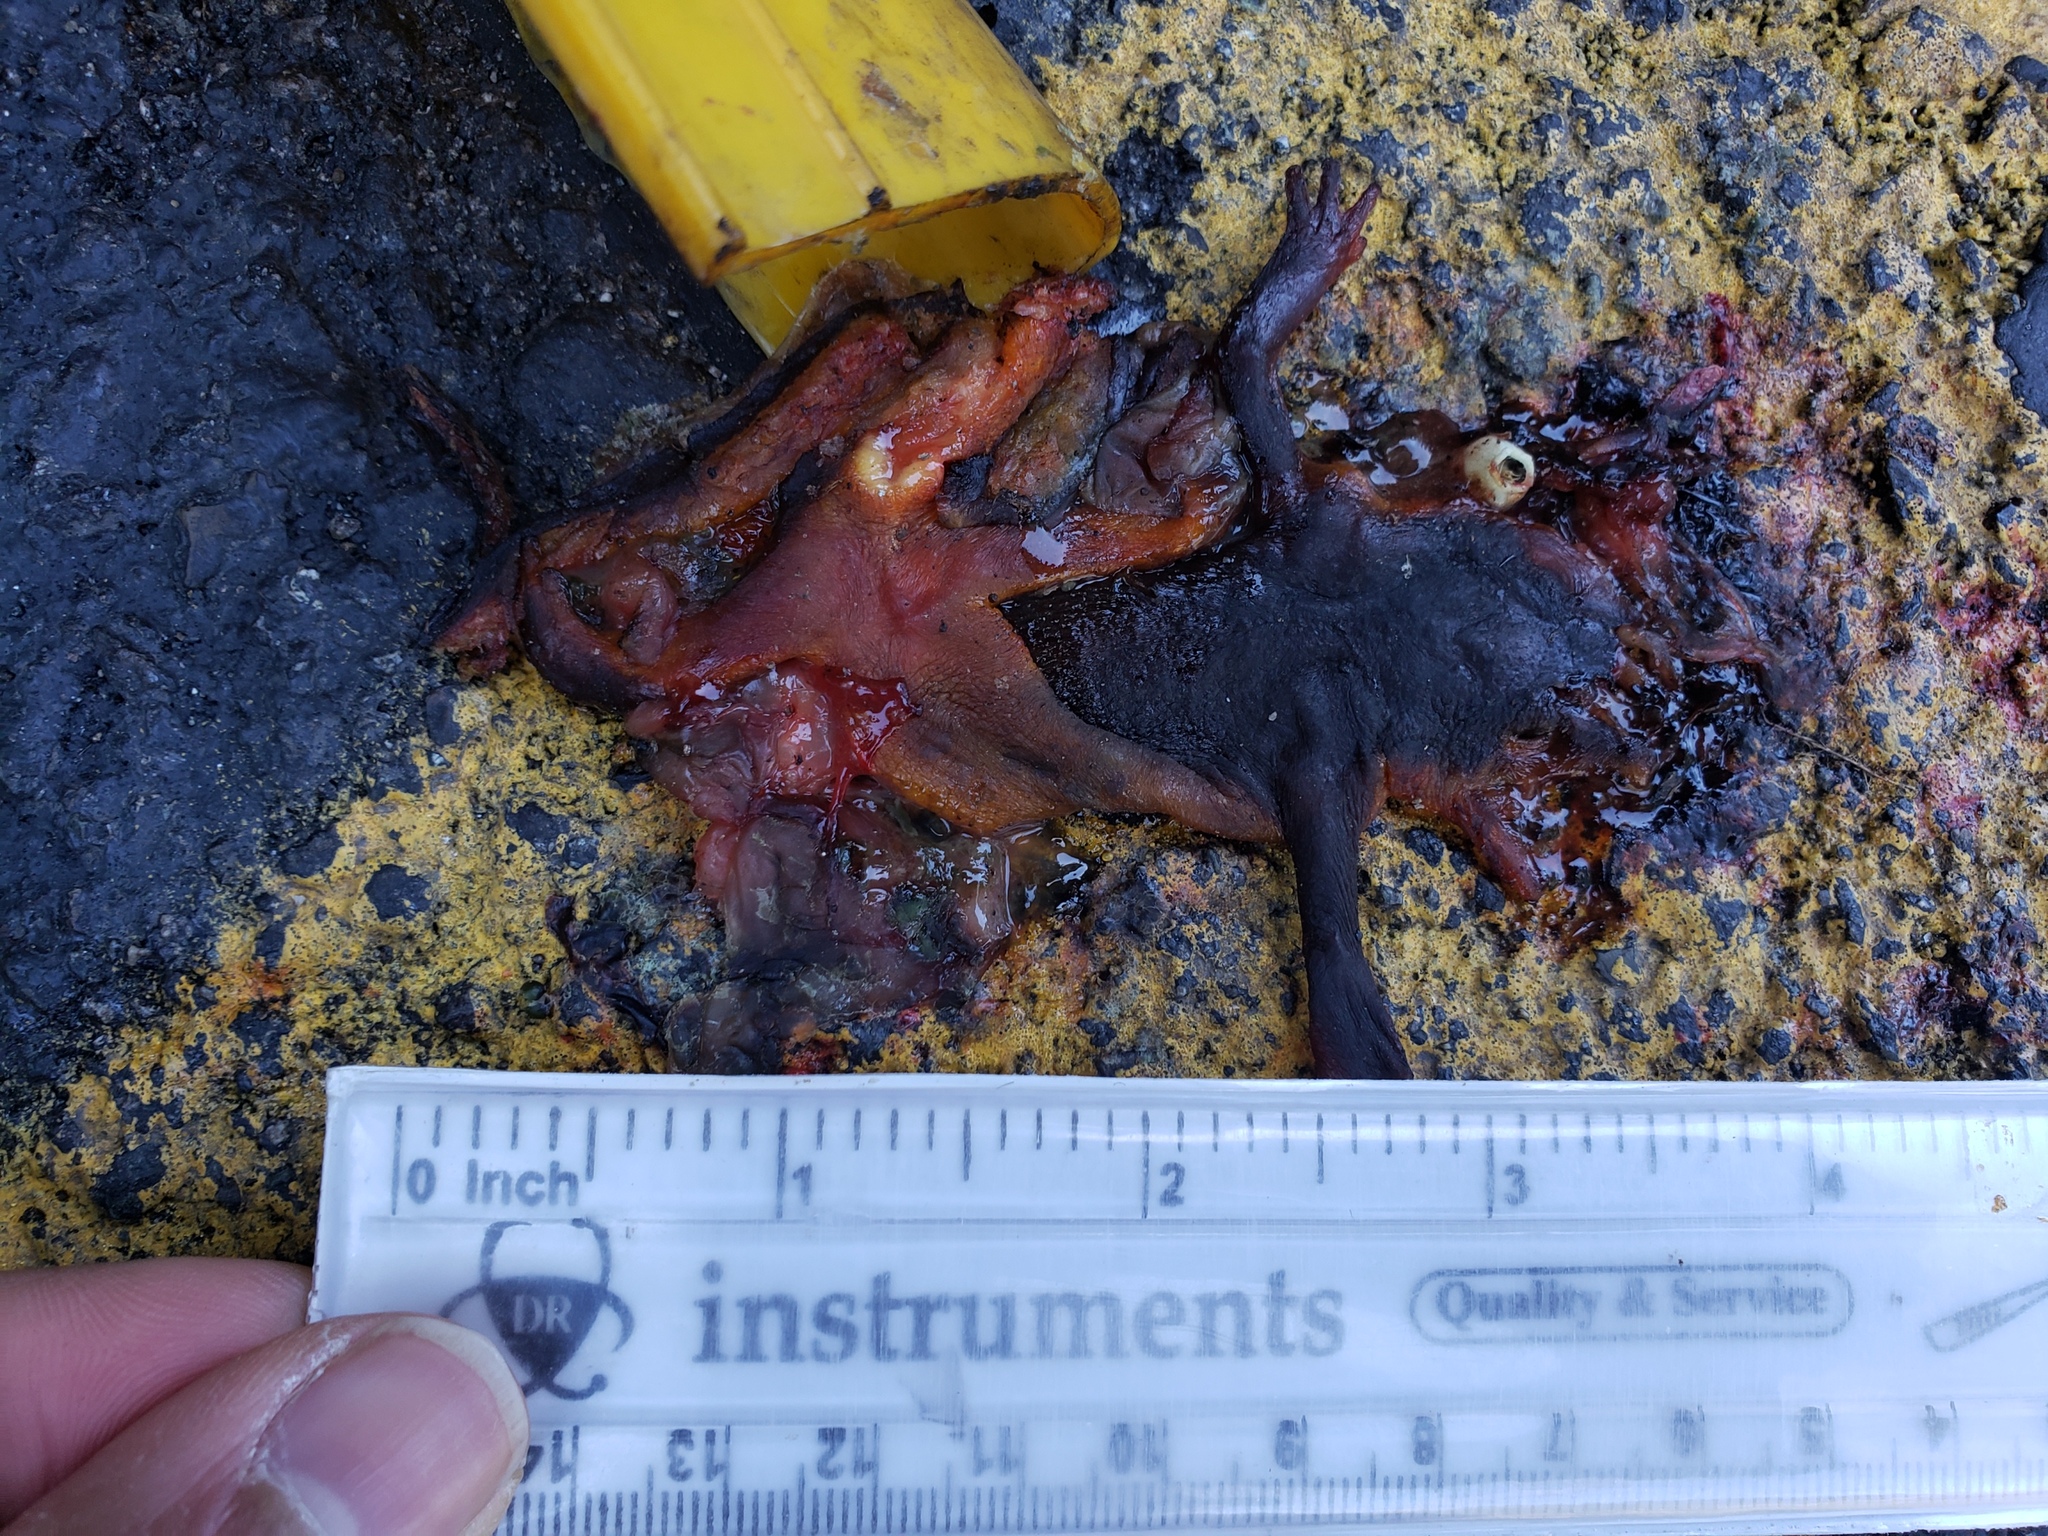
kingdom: Animalia
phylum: Chordata
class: Amphibia
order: Caudata
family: Salamandridae
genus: Taricha
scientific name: Taricha
